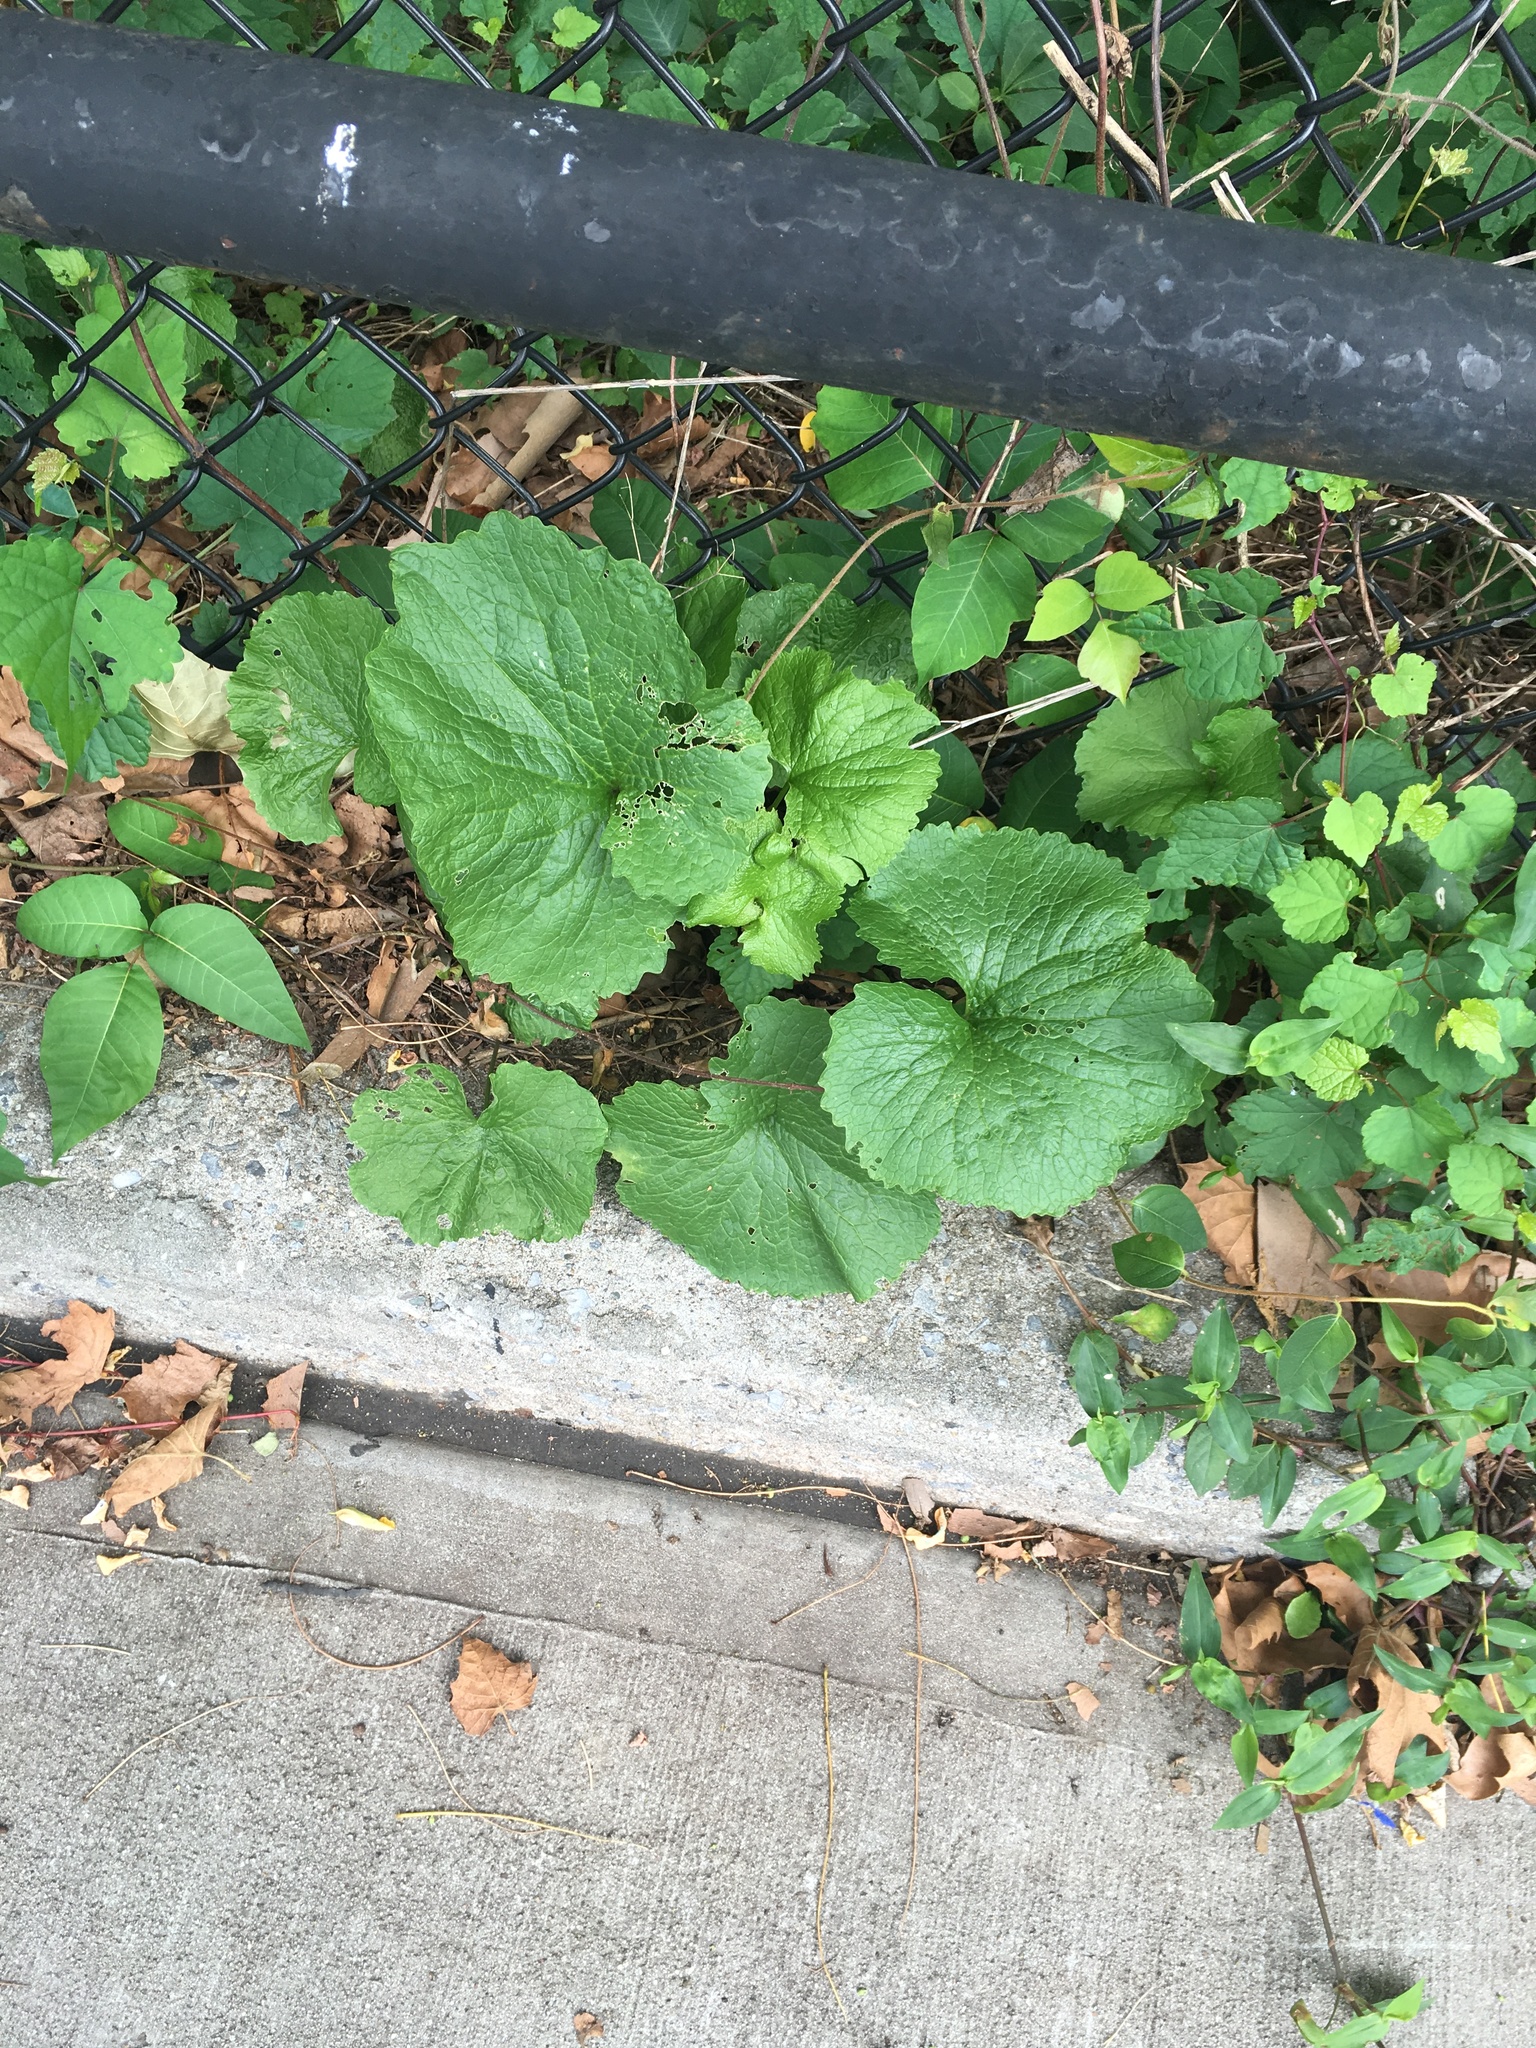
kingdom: Plantae
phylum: Tracheophyta
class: Magnoliopsida
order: Brassicales
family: Brassicaceae
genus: Alliaria
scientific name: Alliaria petiolata
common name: Garlic mustard
